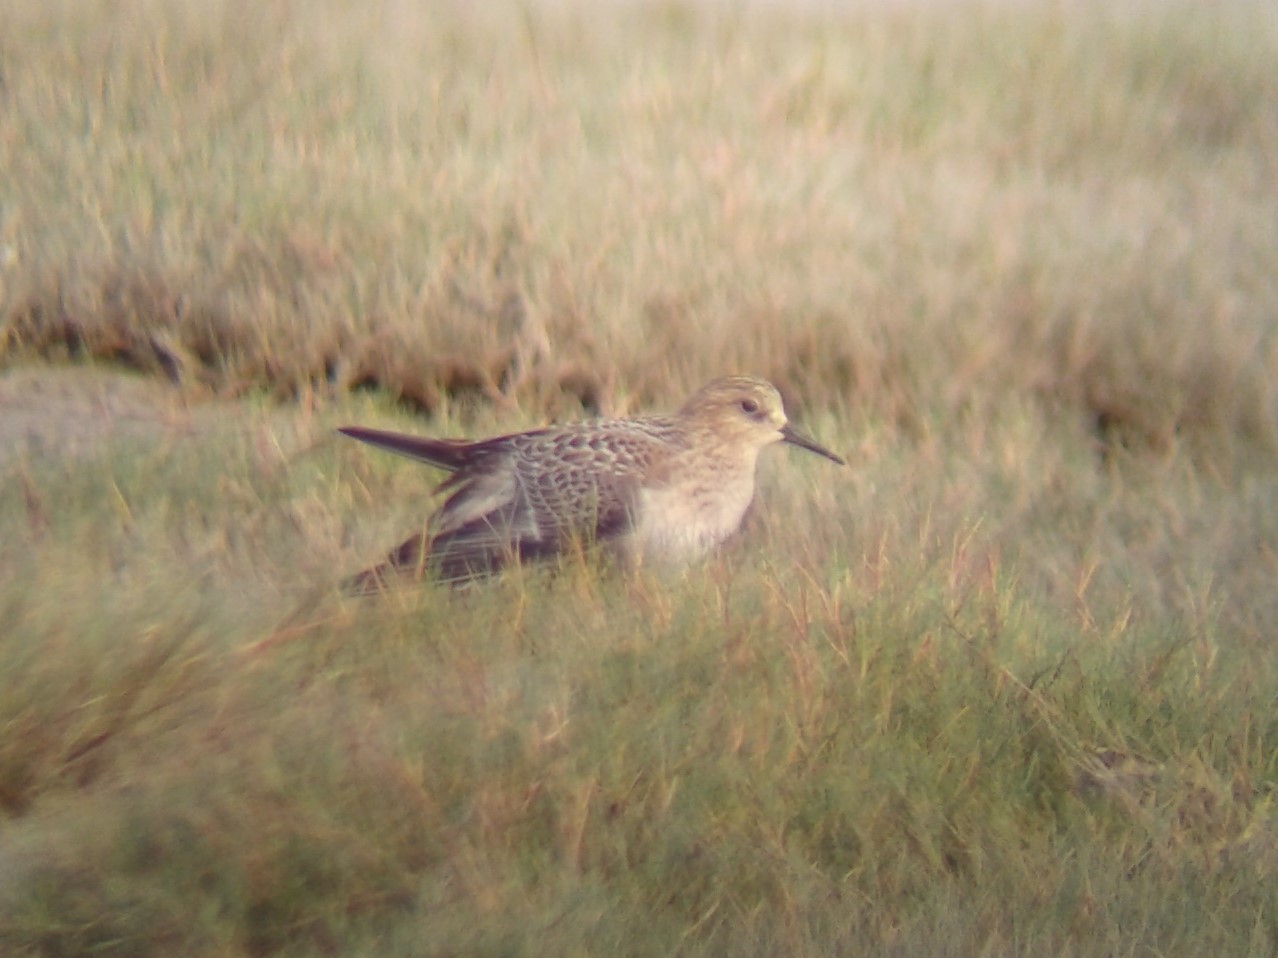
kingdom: Animalia
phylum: Chordata
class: Aves
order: Charadriiformes
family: Scolopacidae
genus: Calidris
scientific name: Calidris bairdii
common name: Baird's sandpiper
